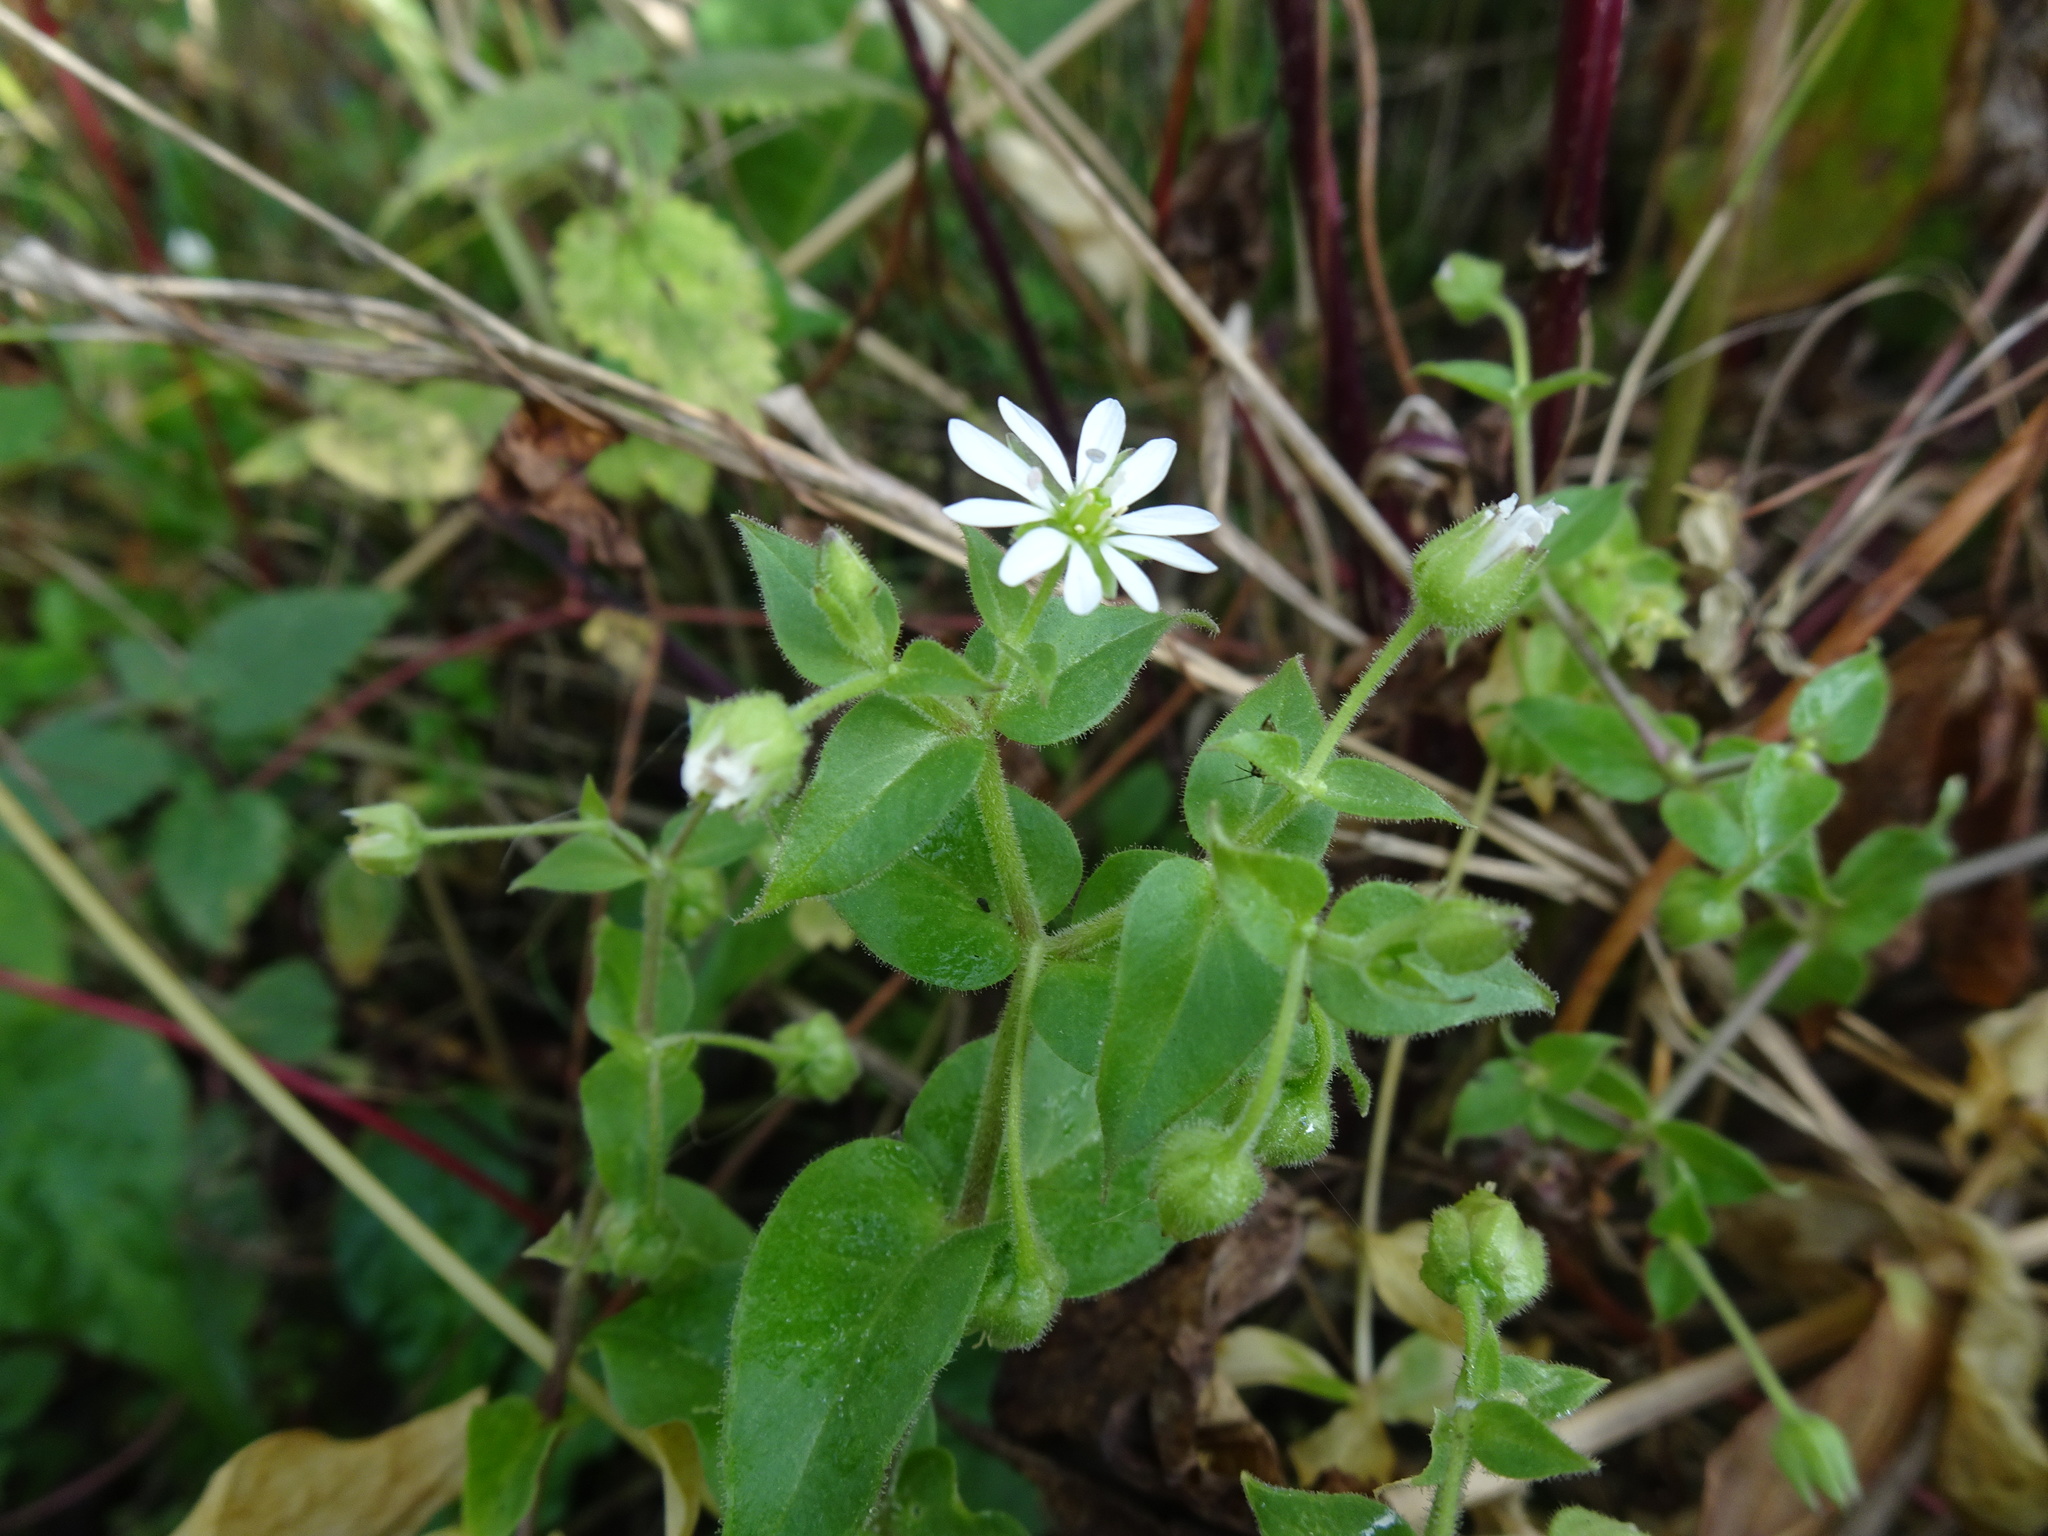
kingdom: Plantae
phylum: Tracheophyta
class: Magnoliopsida
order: Caryophyllales
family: Caryophyllaceae
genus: Stellaria
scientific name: Stellaria aquatica
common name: Water chickweed
